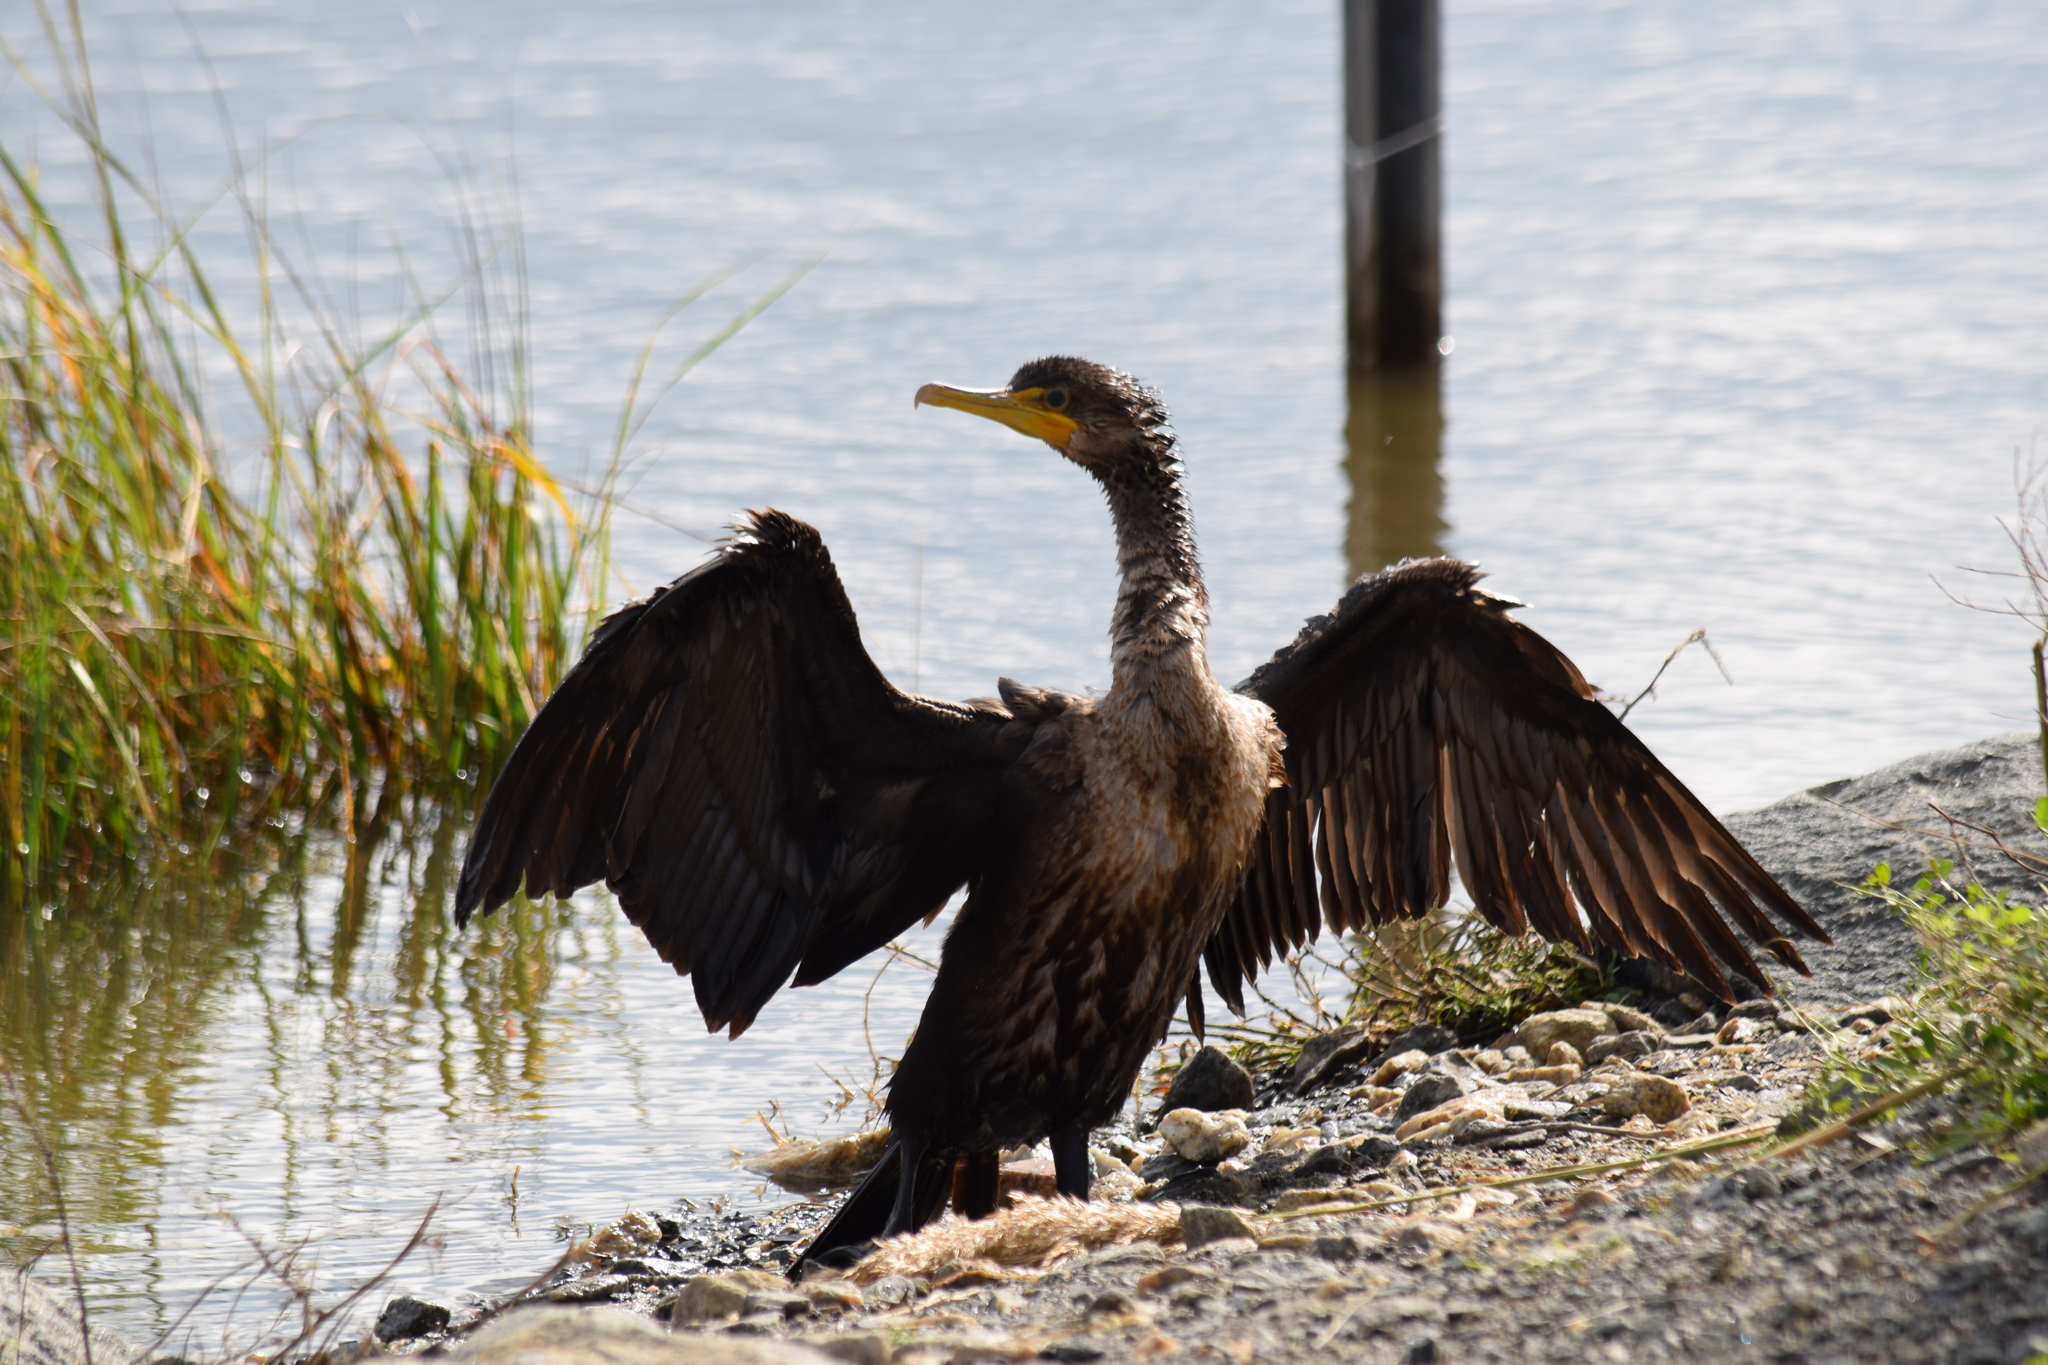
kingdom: Animalia
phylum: Chordata
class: Aves
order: Suliformes
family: Phalacrocoracidae
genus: Phalacrocorax
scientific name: Phalacrocorax auritus
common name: Double-crested cormorant
